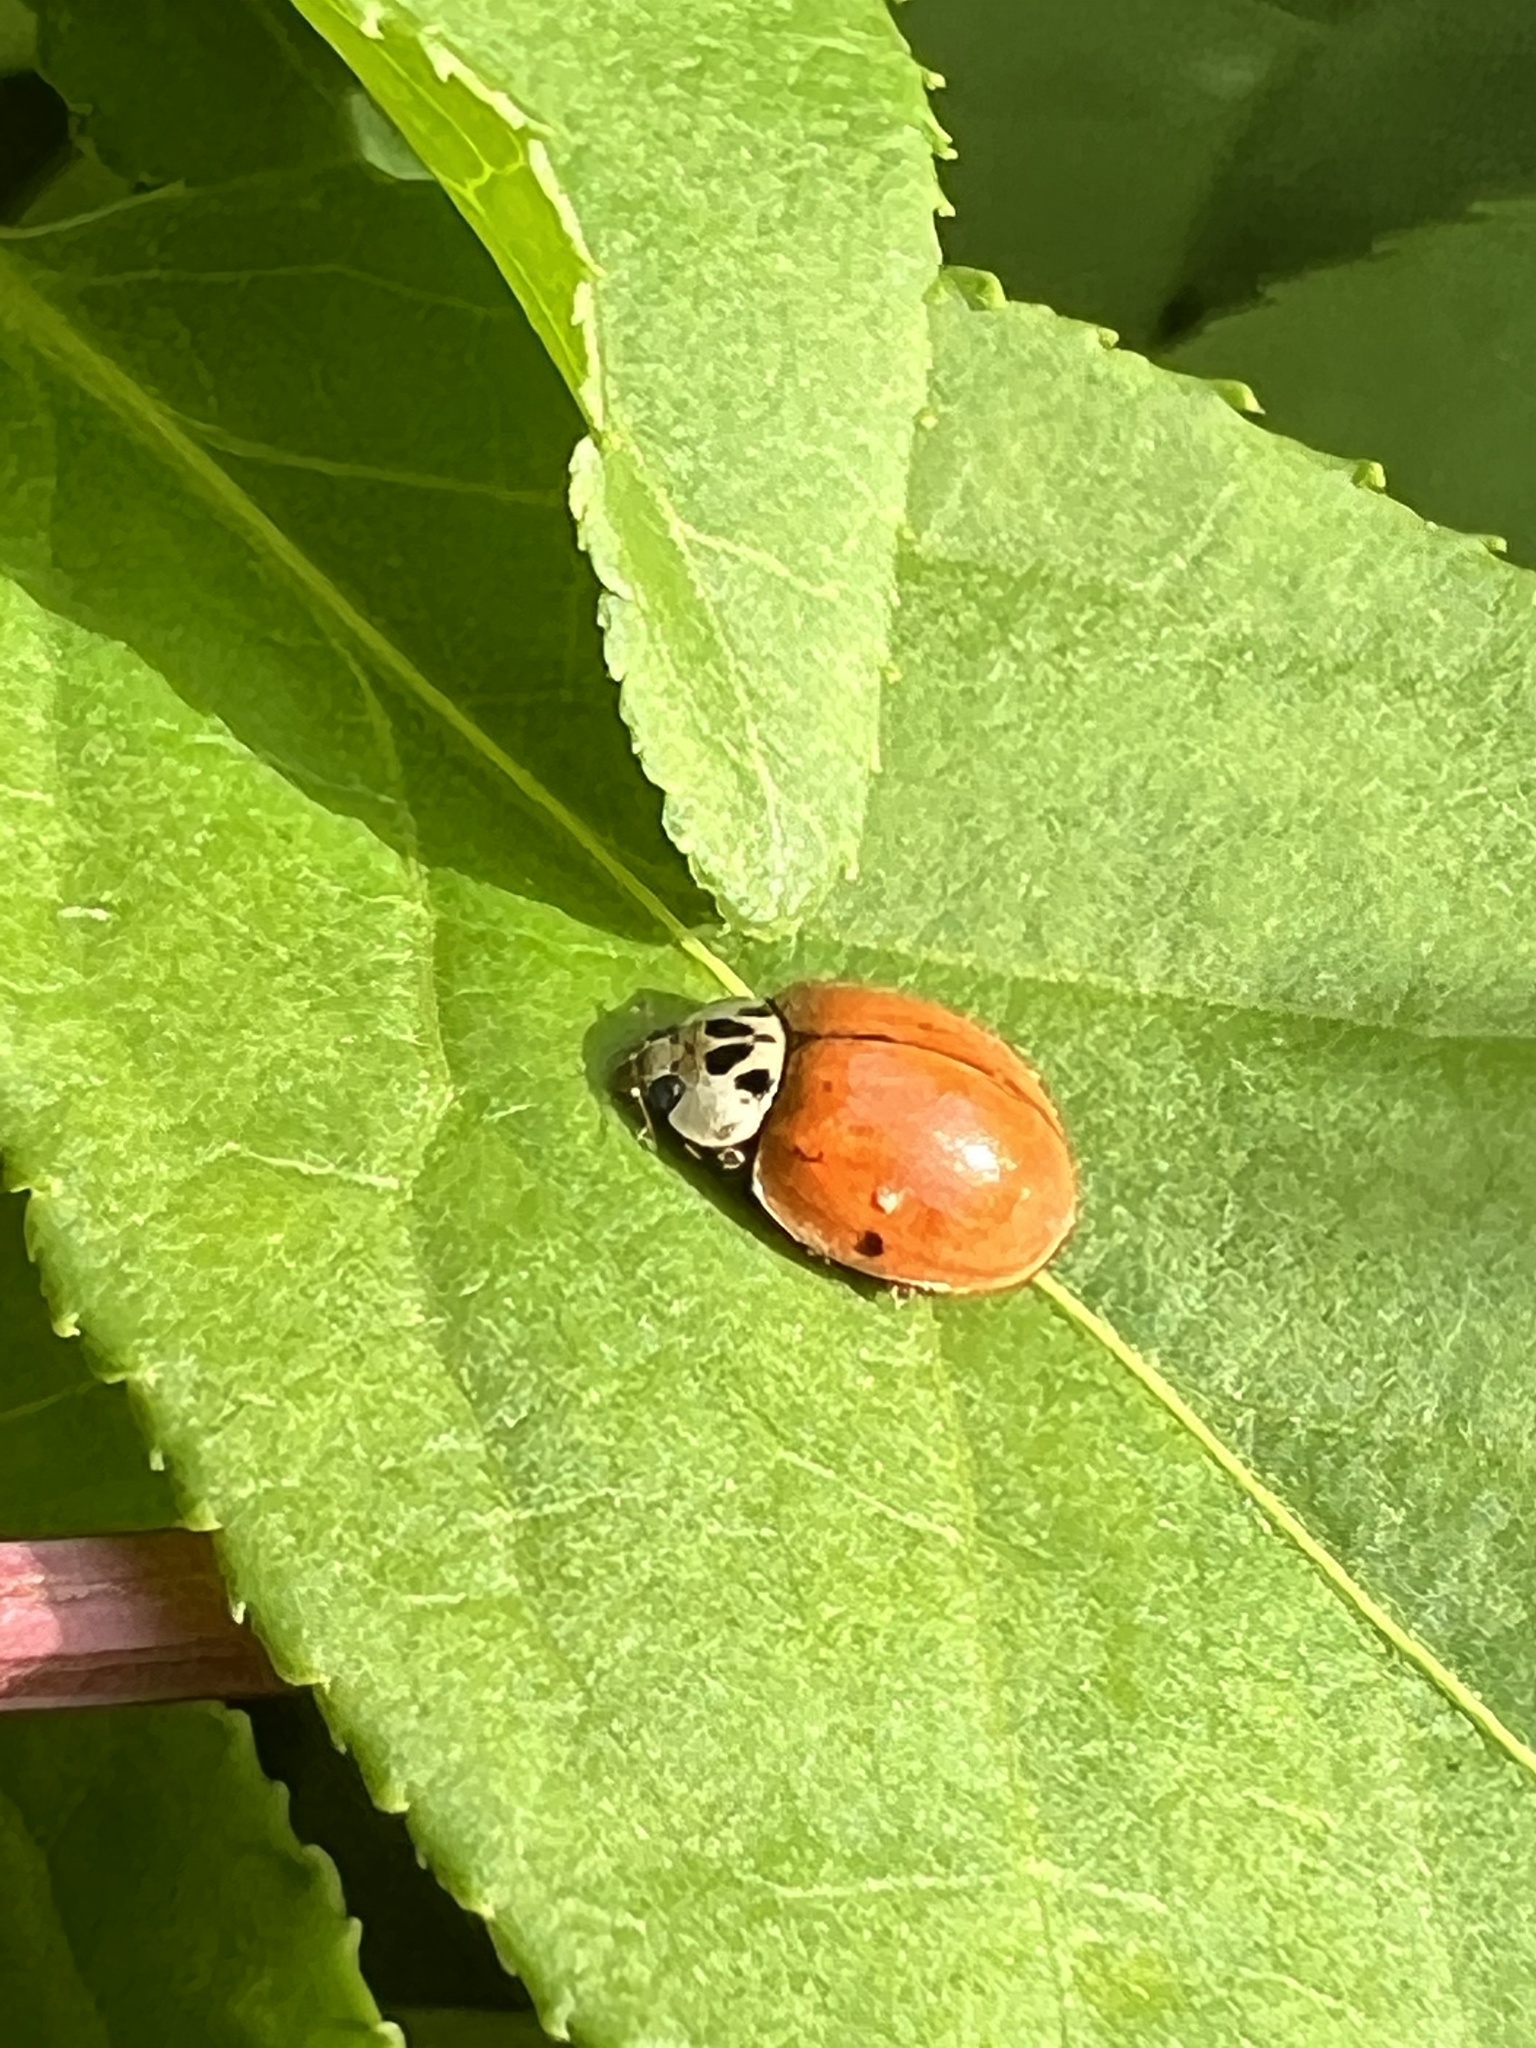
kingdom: Animalia
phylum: Arthropoda
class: Insecta
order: Coleoptera
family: Coccinellidae
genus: Harmonia
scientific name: Harmonia axyridis
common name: Harlequin ladybird
